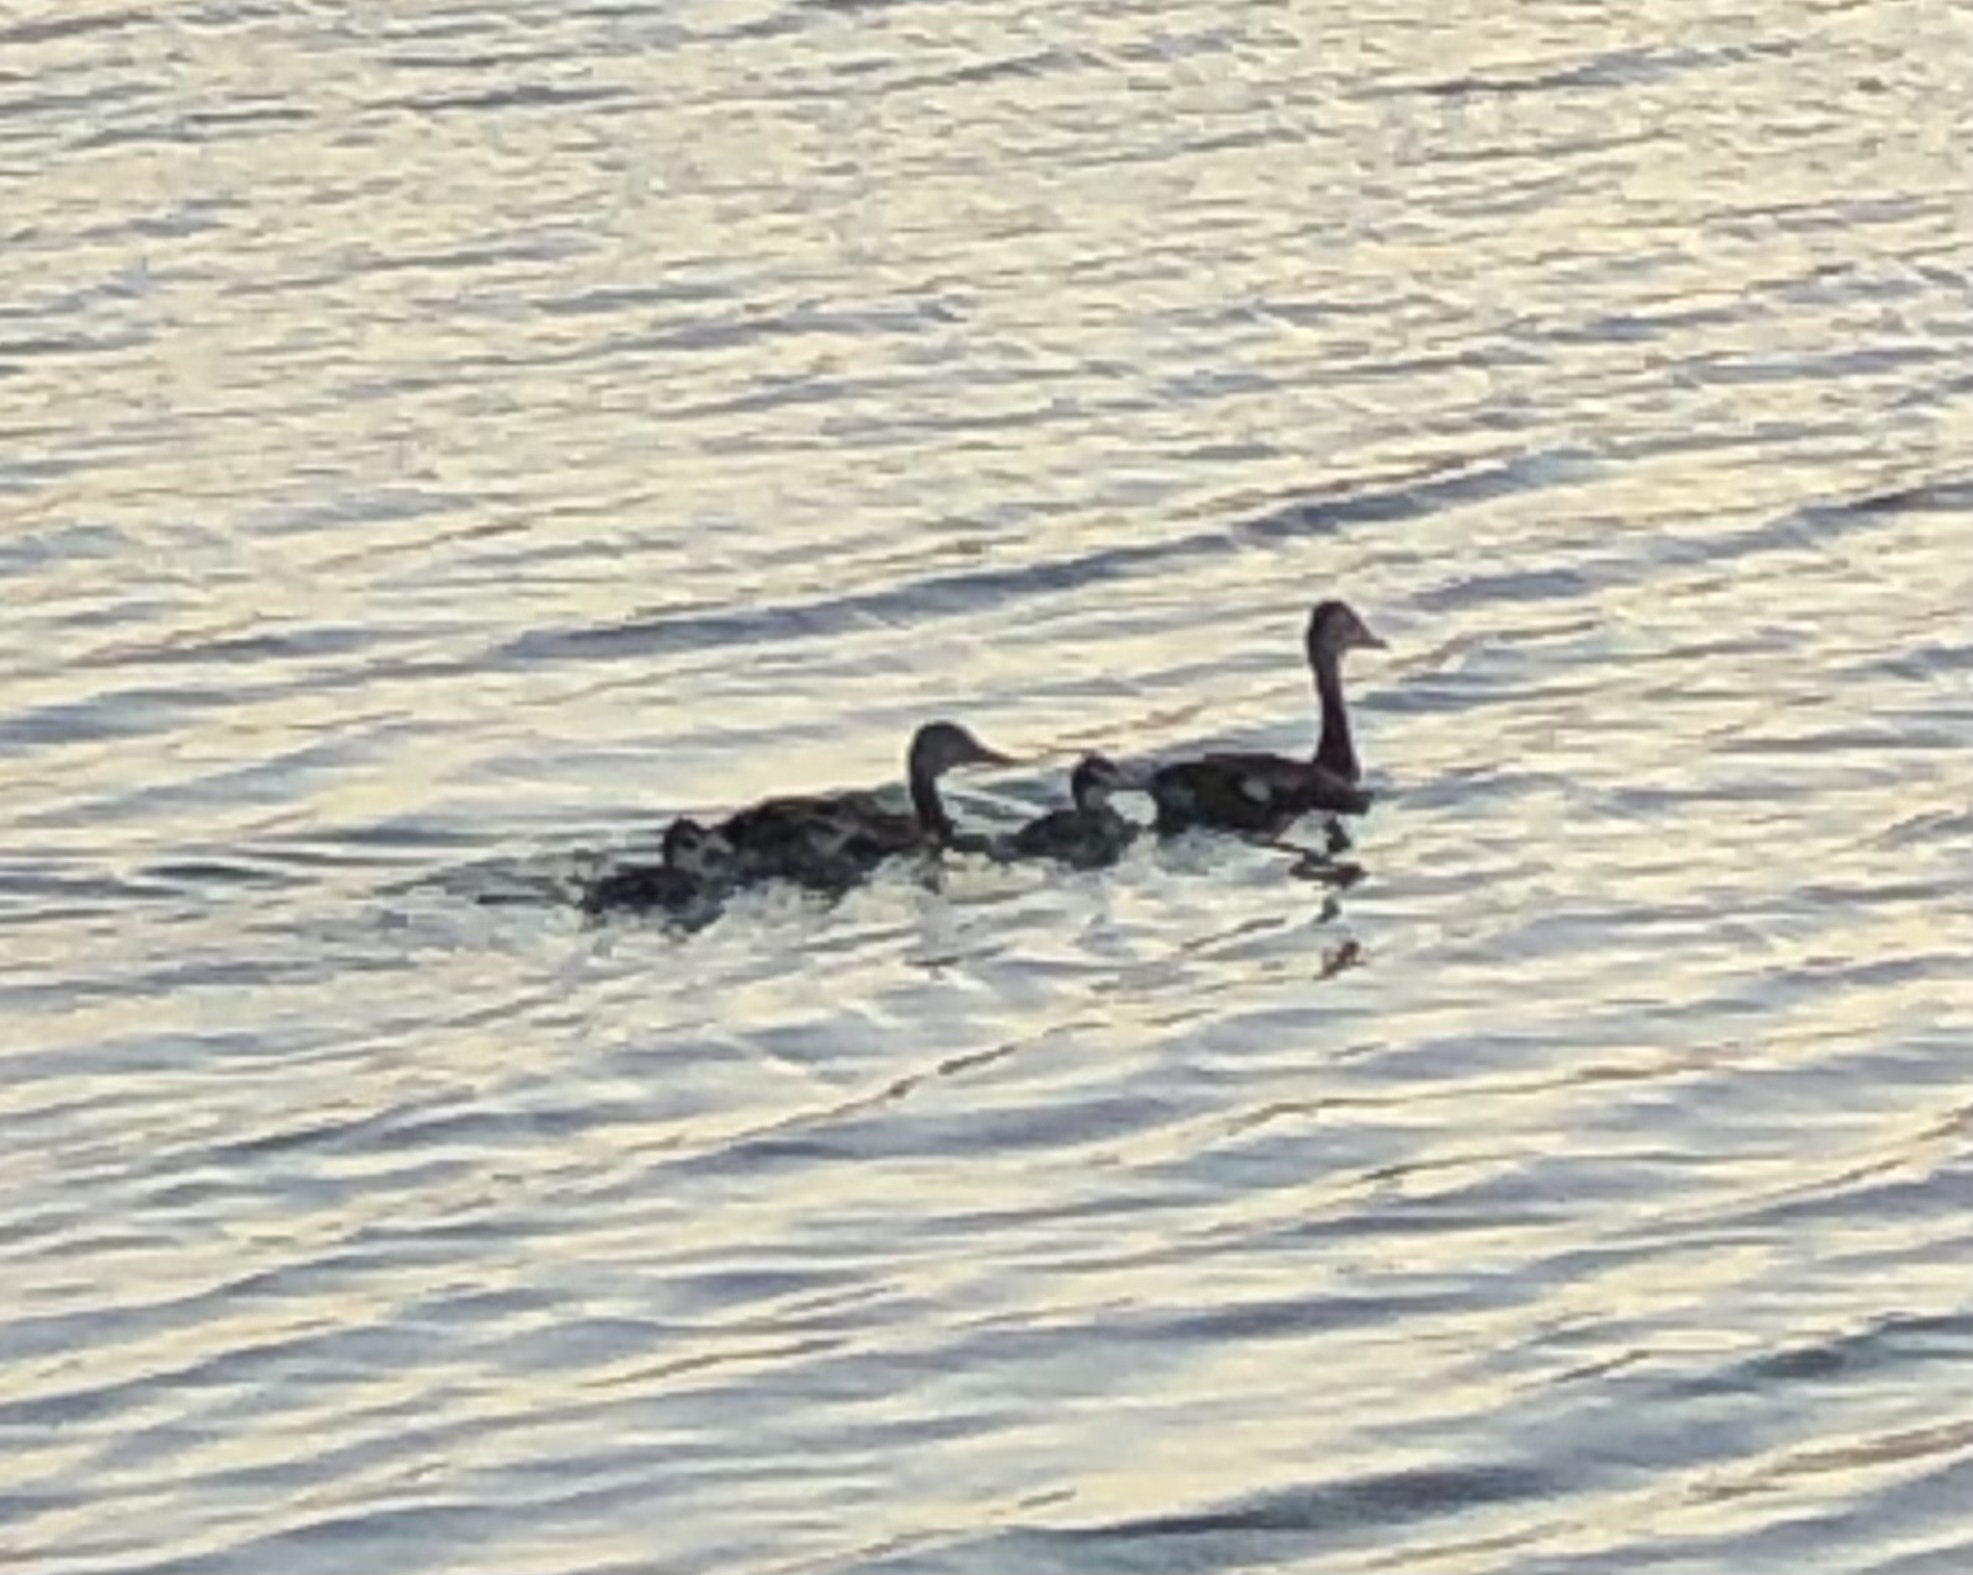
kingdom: Animalia
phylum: Chordata
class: Aves
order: Anseriformes
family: Anatidae
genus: Dendrocygna
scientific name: Dendrocygna autumnalis
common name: Black-bellied whistling duck
